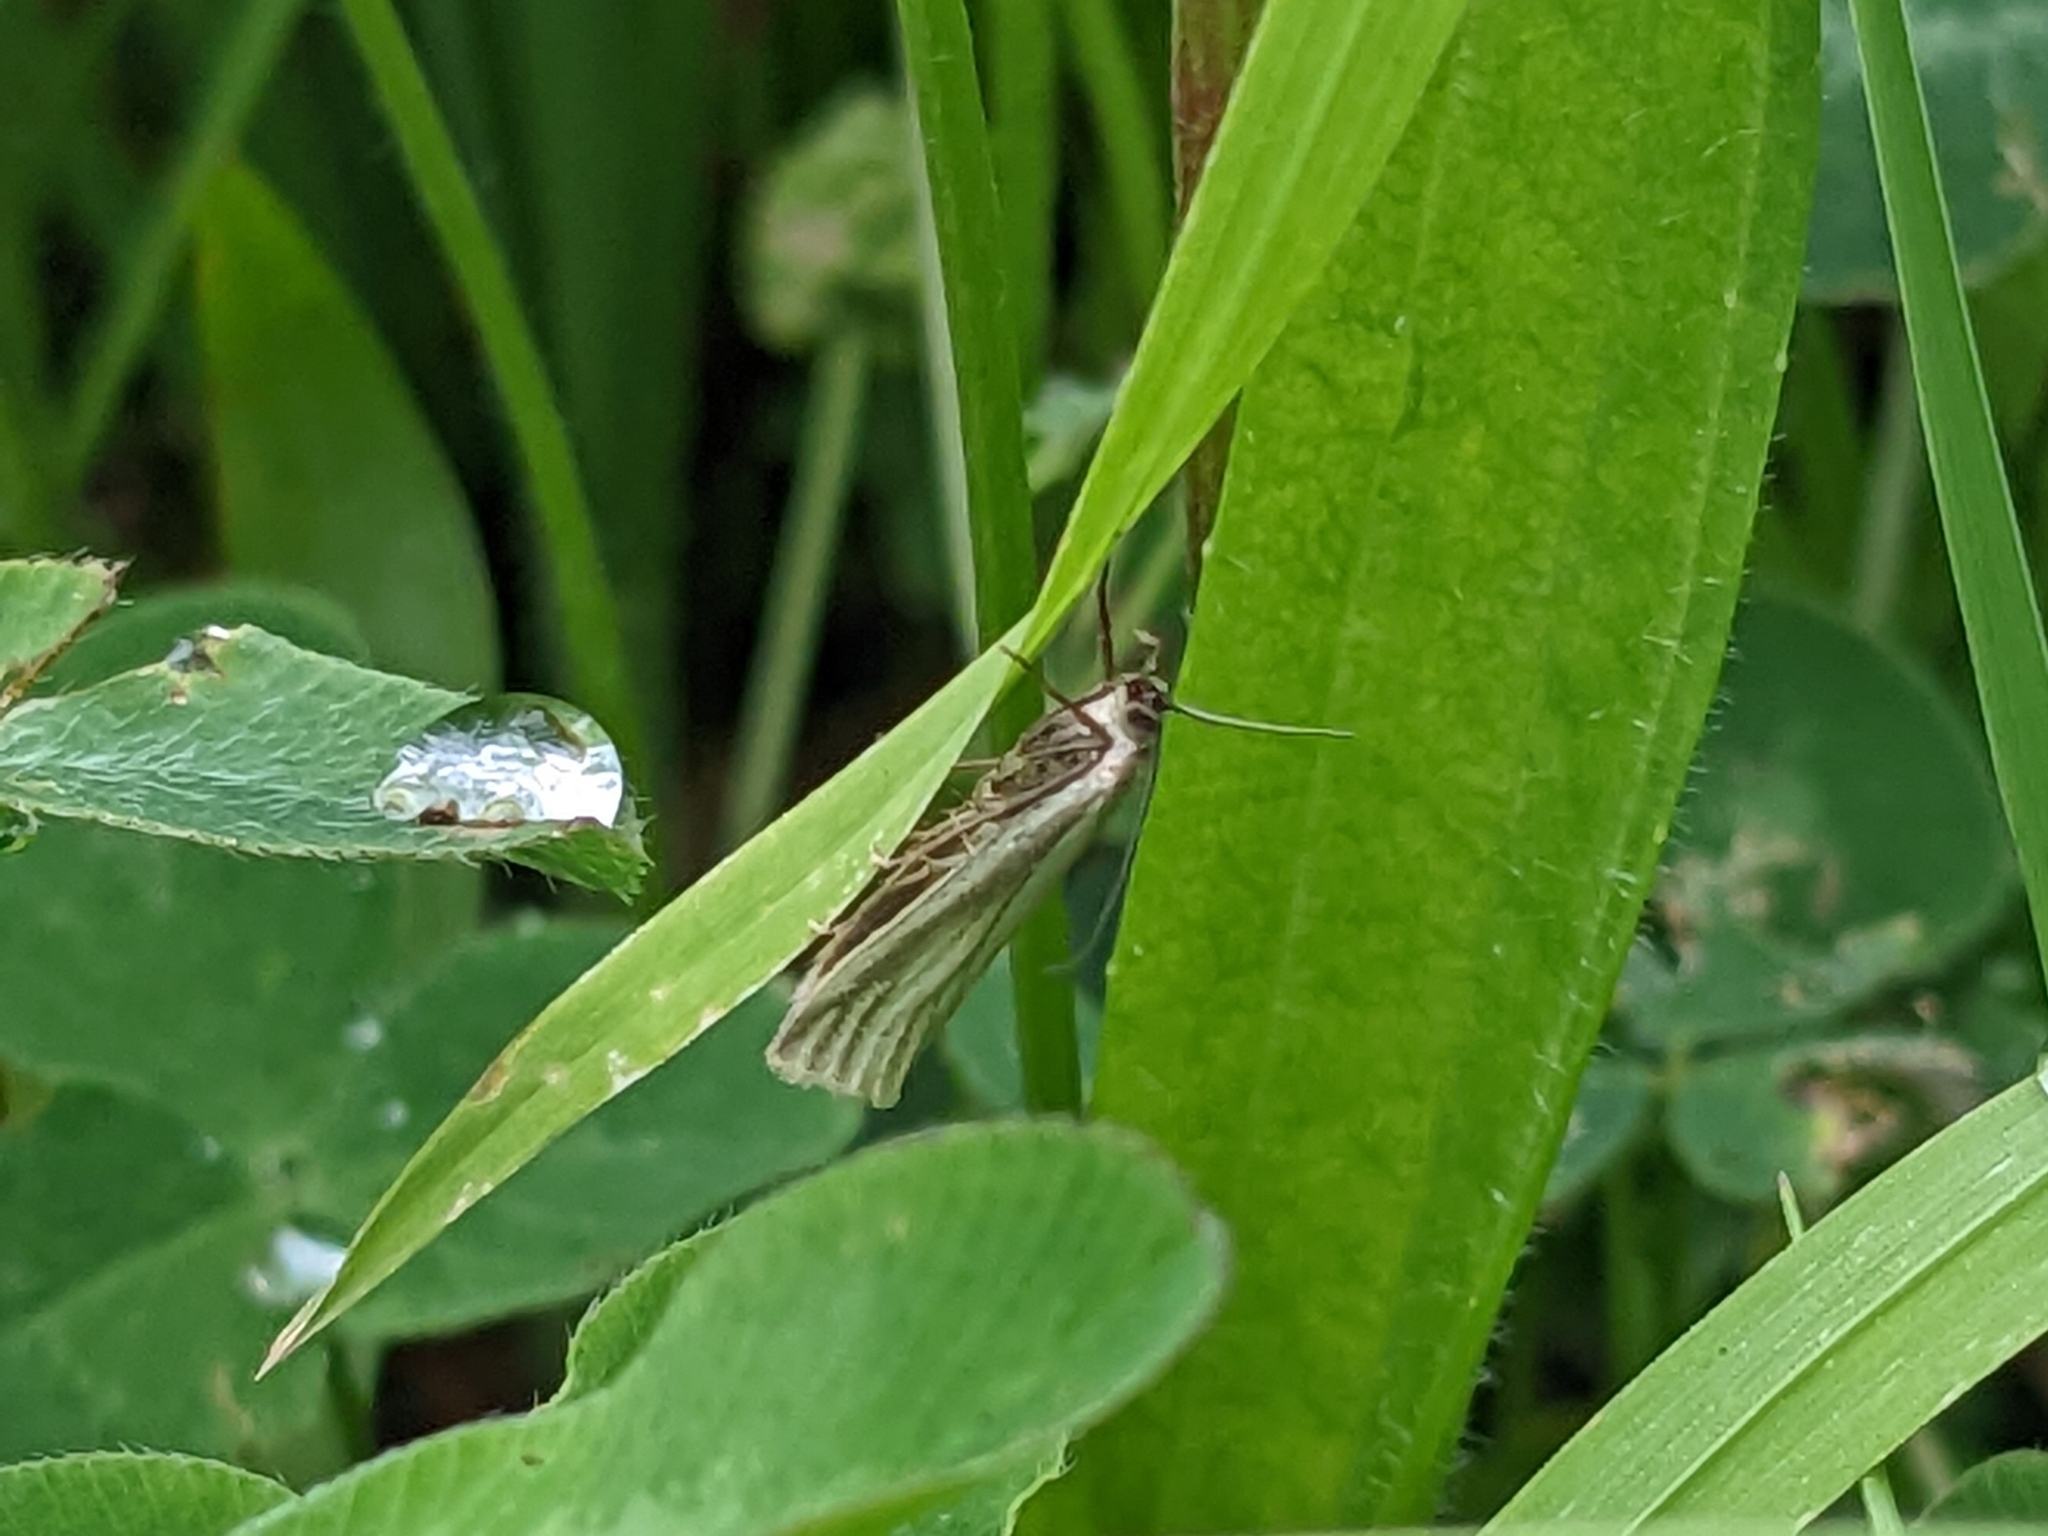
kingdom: Animalia
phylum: Arthropoda
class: Insecta
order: Lepidoptera
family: Crambidae
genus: Crambus
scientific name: Crambus perlellus
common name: Yellow satin veneer
